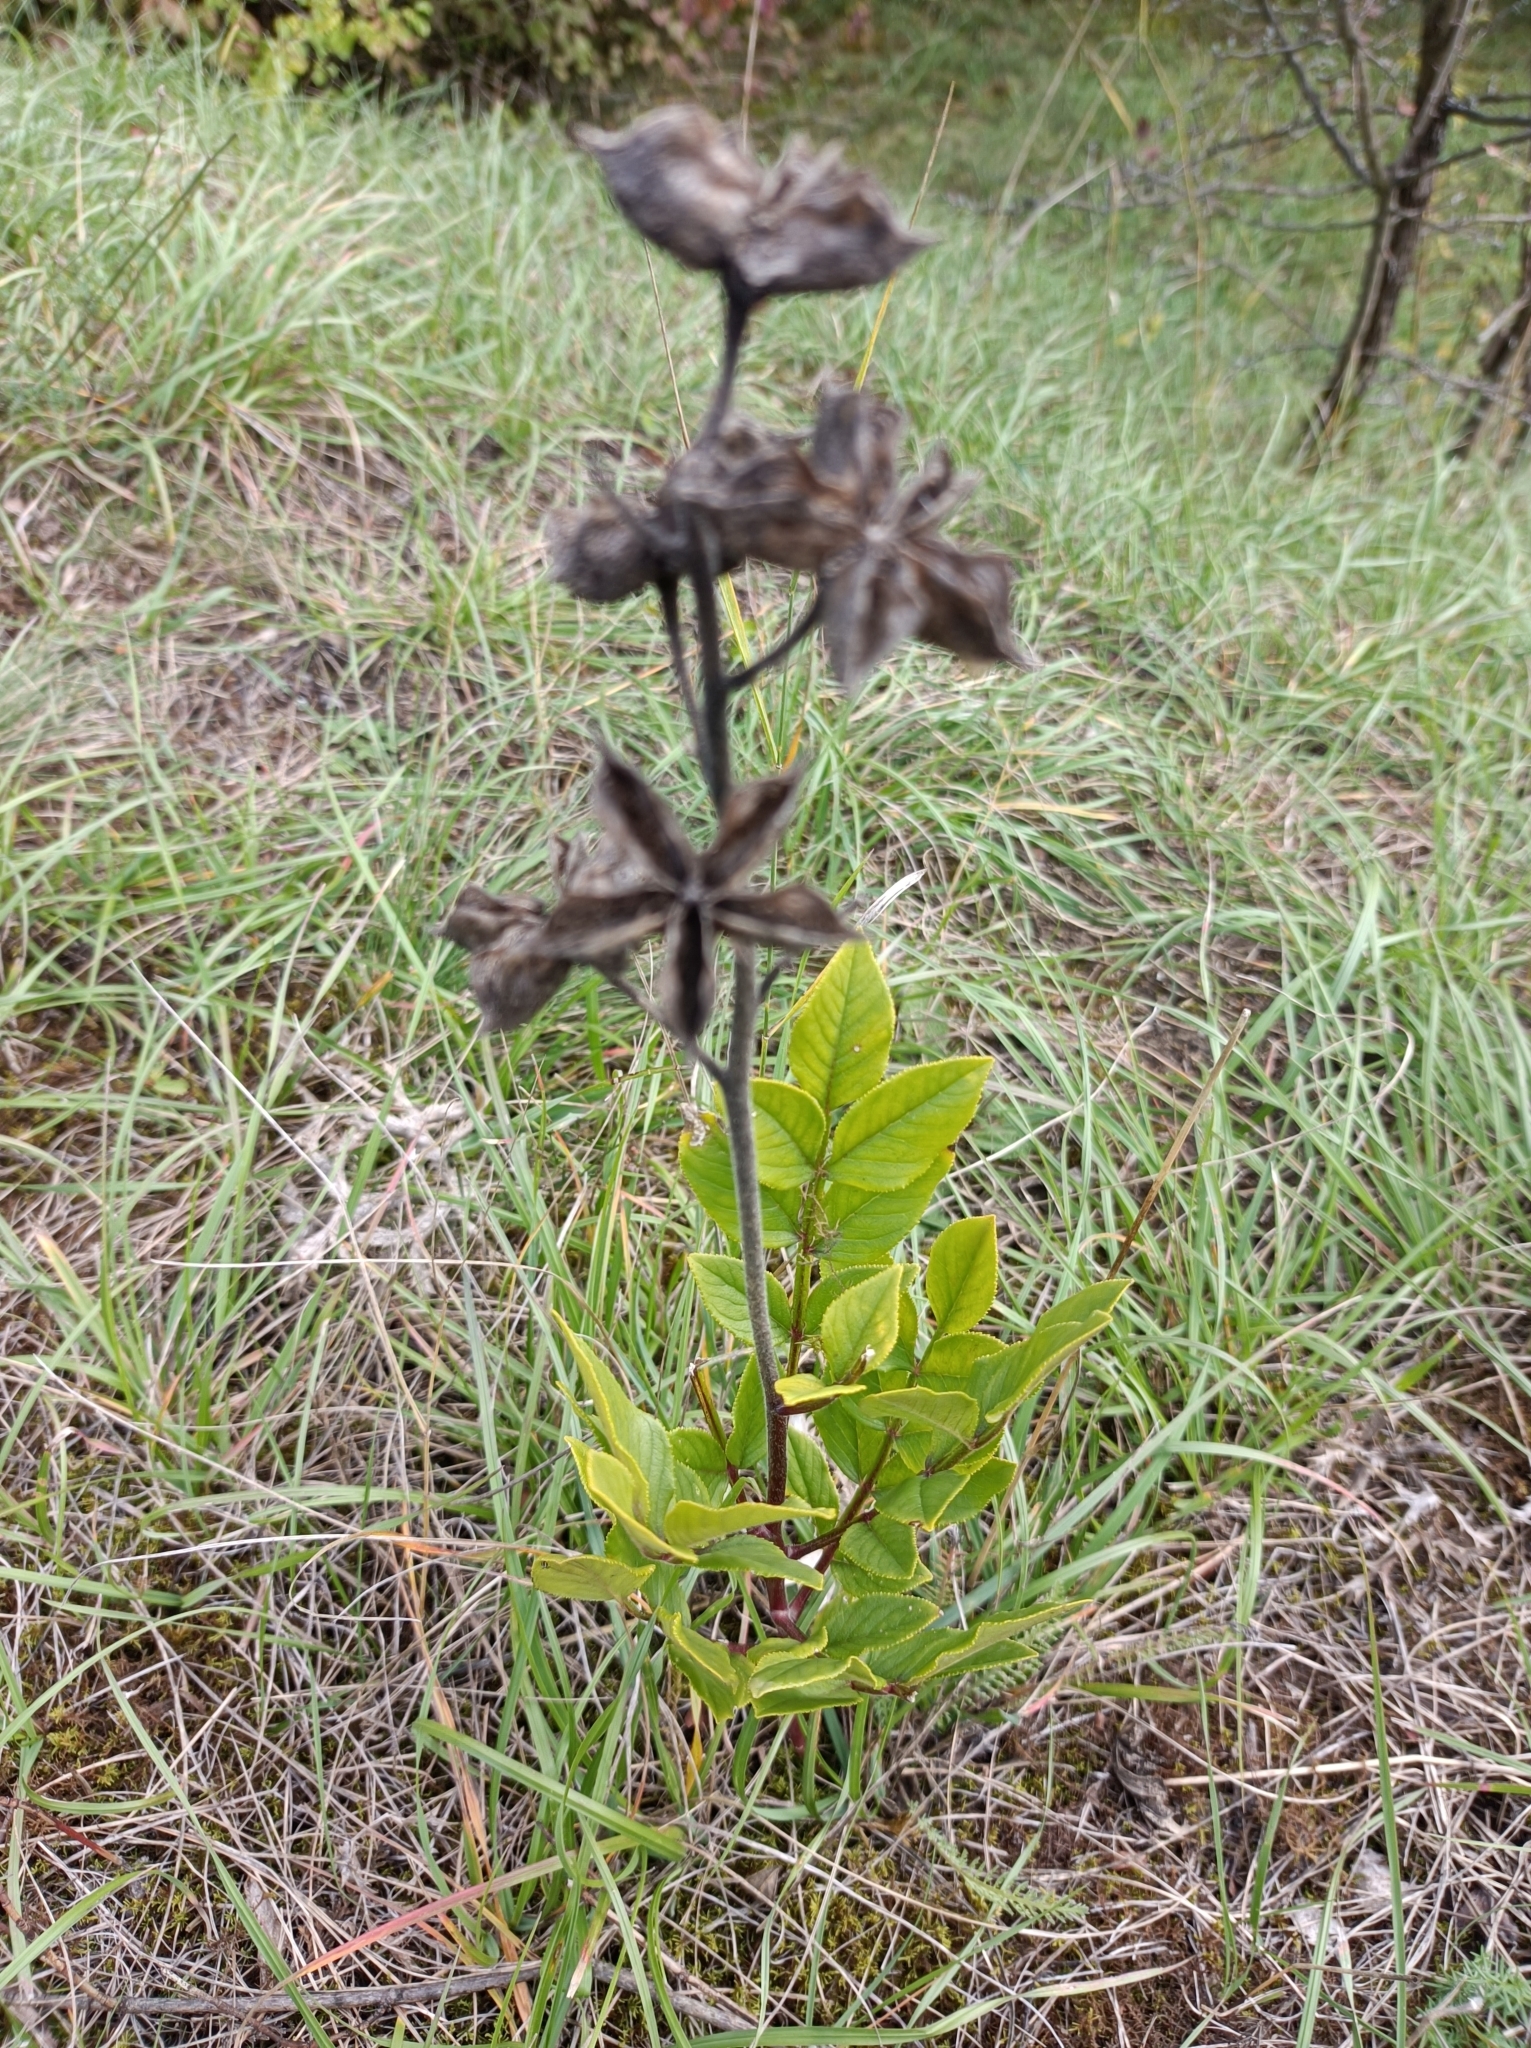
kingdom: Plantae
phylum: Tracheophyta
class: Magnoliopsida
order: Sapindales
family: Rutaceae
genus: Dictamnus
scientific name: Dictamnus albus
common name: Gasplant
